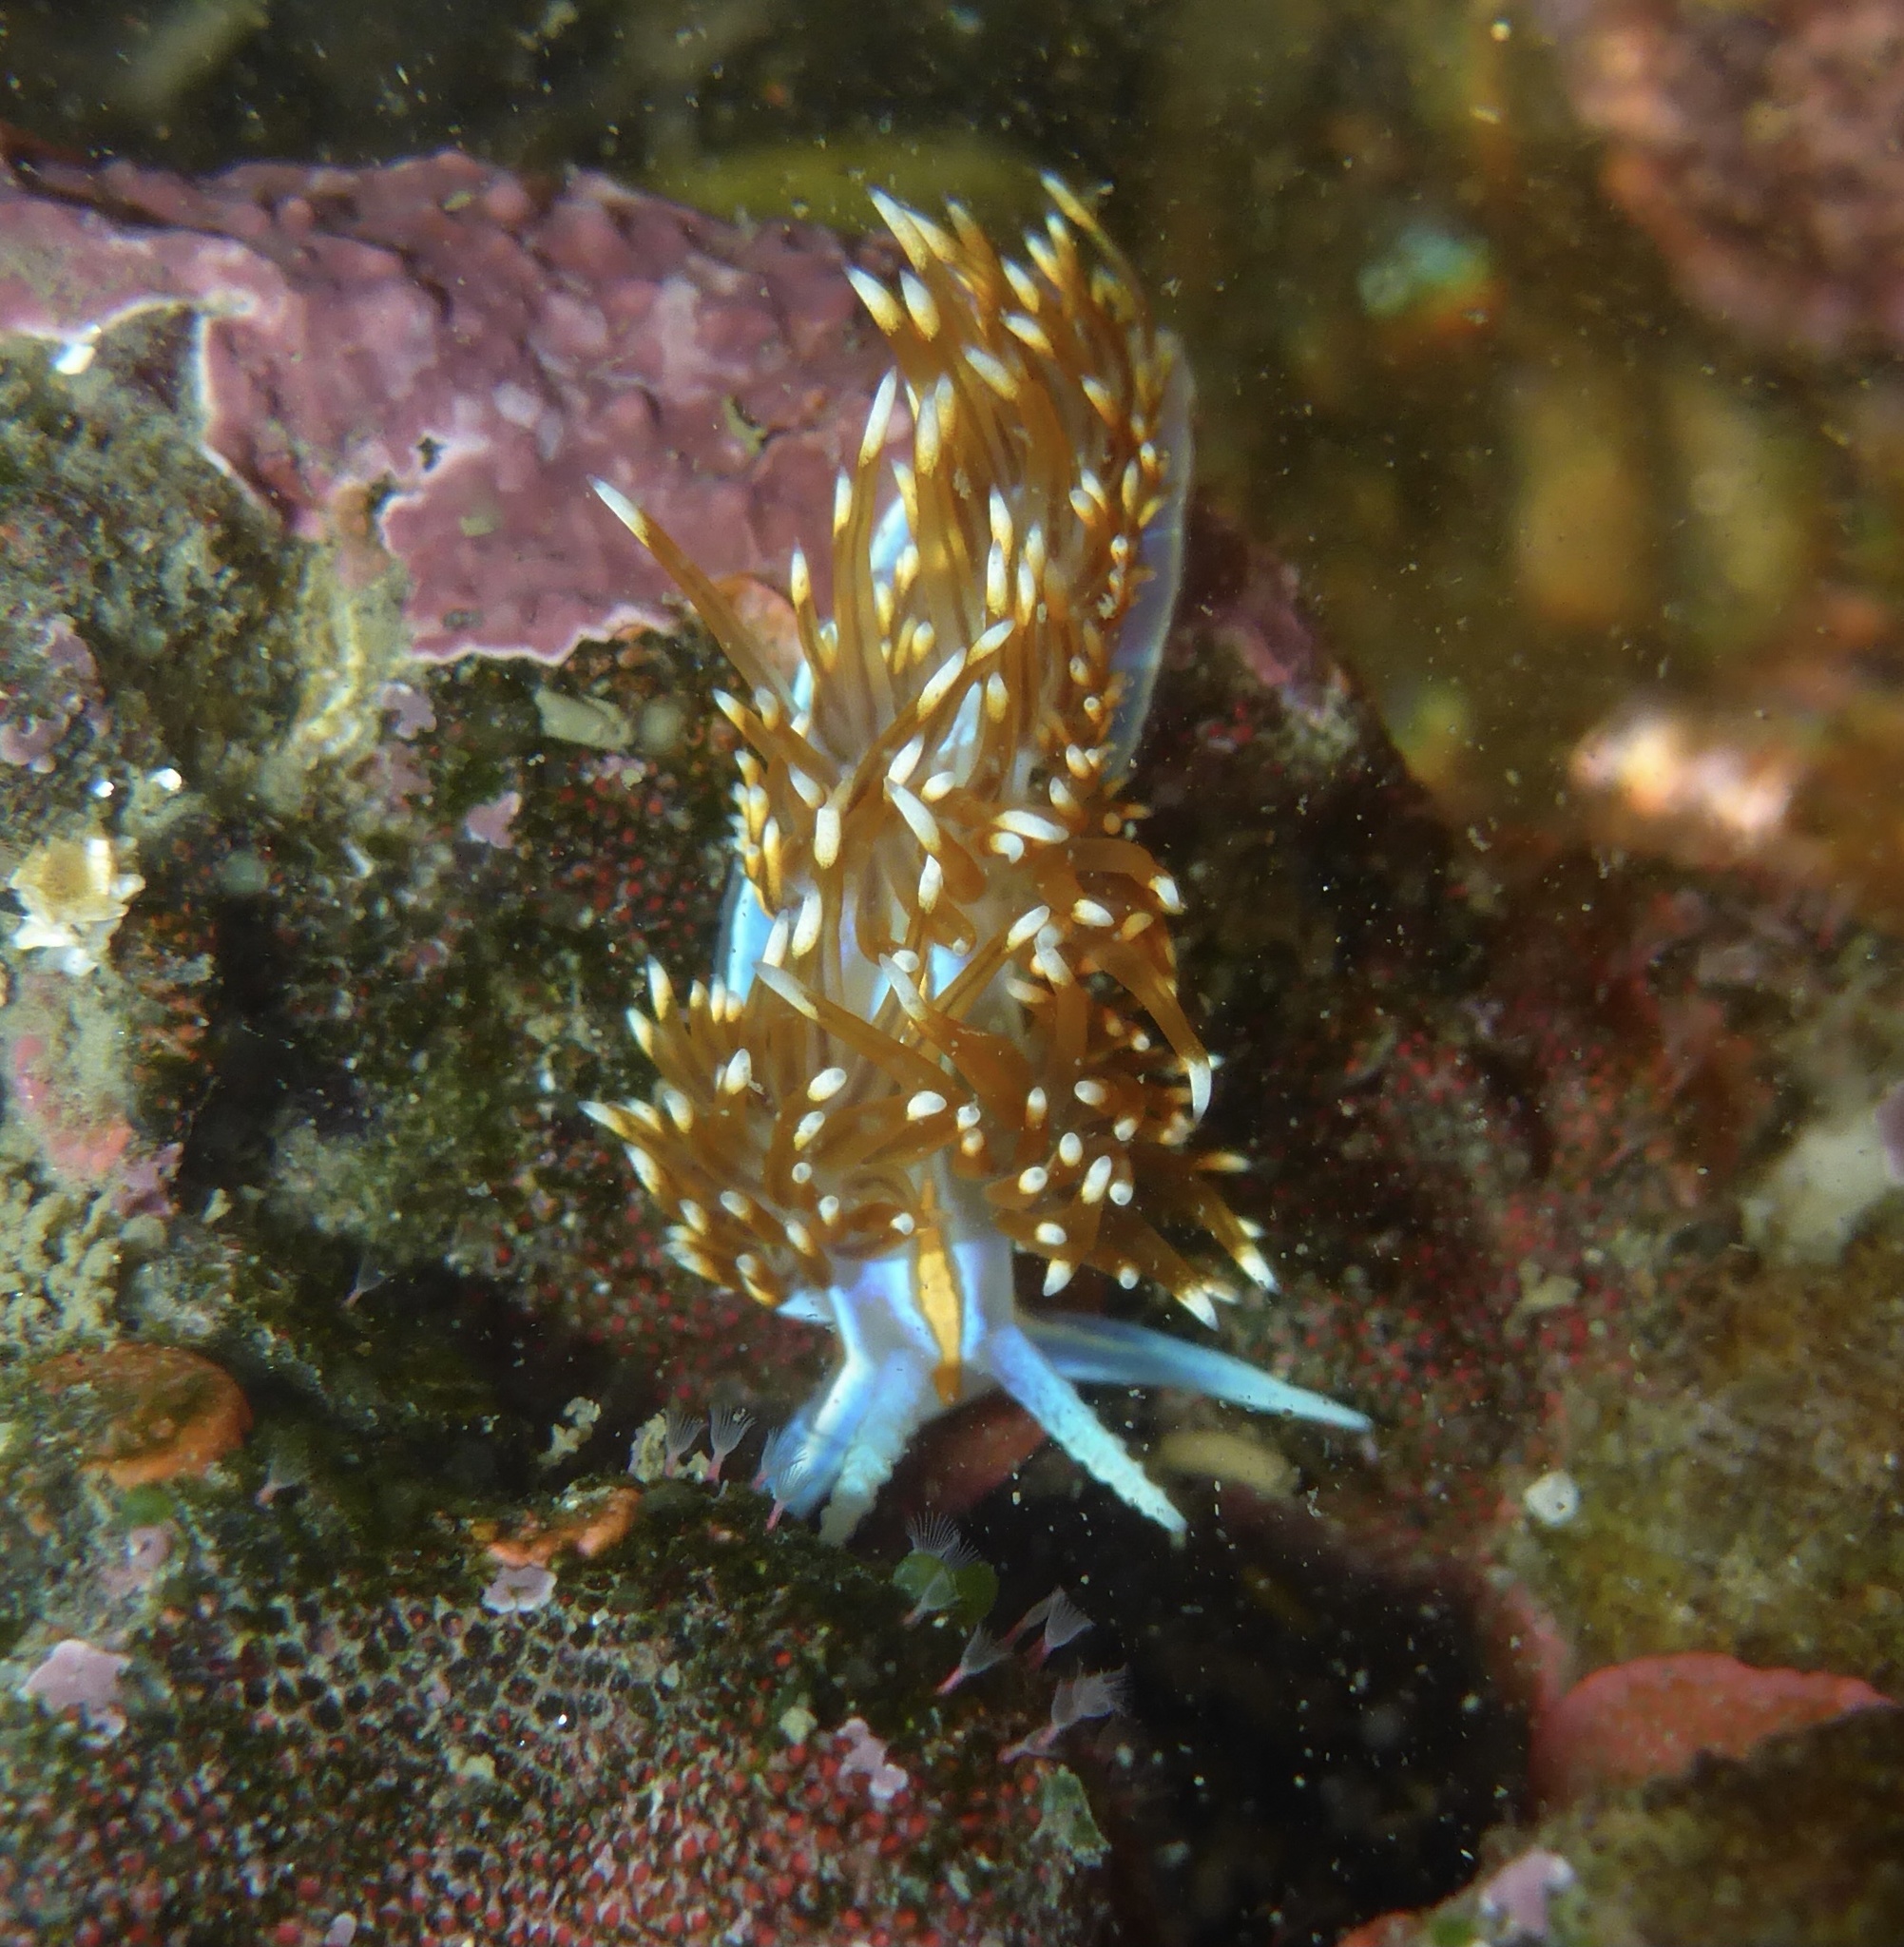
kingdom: Animalia
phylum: Mollusca
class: Gastropoda
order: Nudibranchia
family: Myrrhinidae
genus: Hermissenda
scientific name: Hermissenda opalescens
